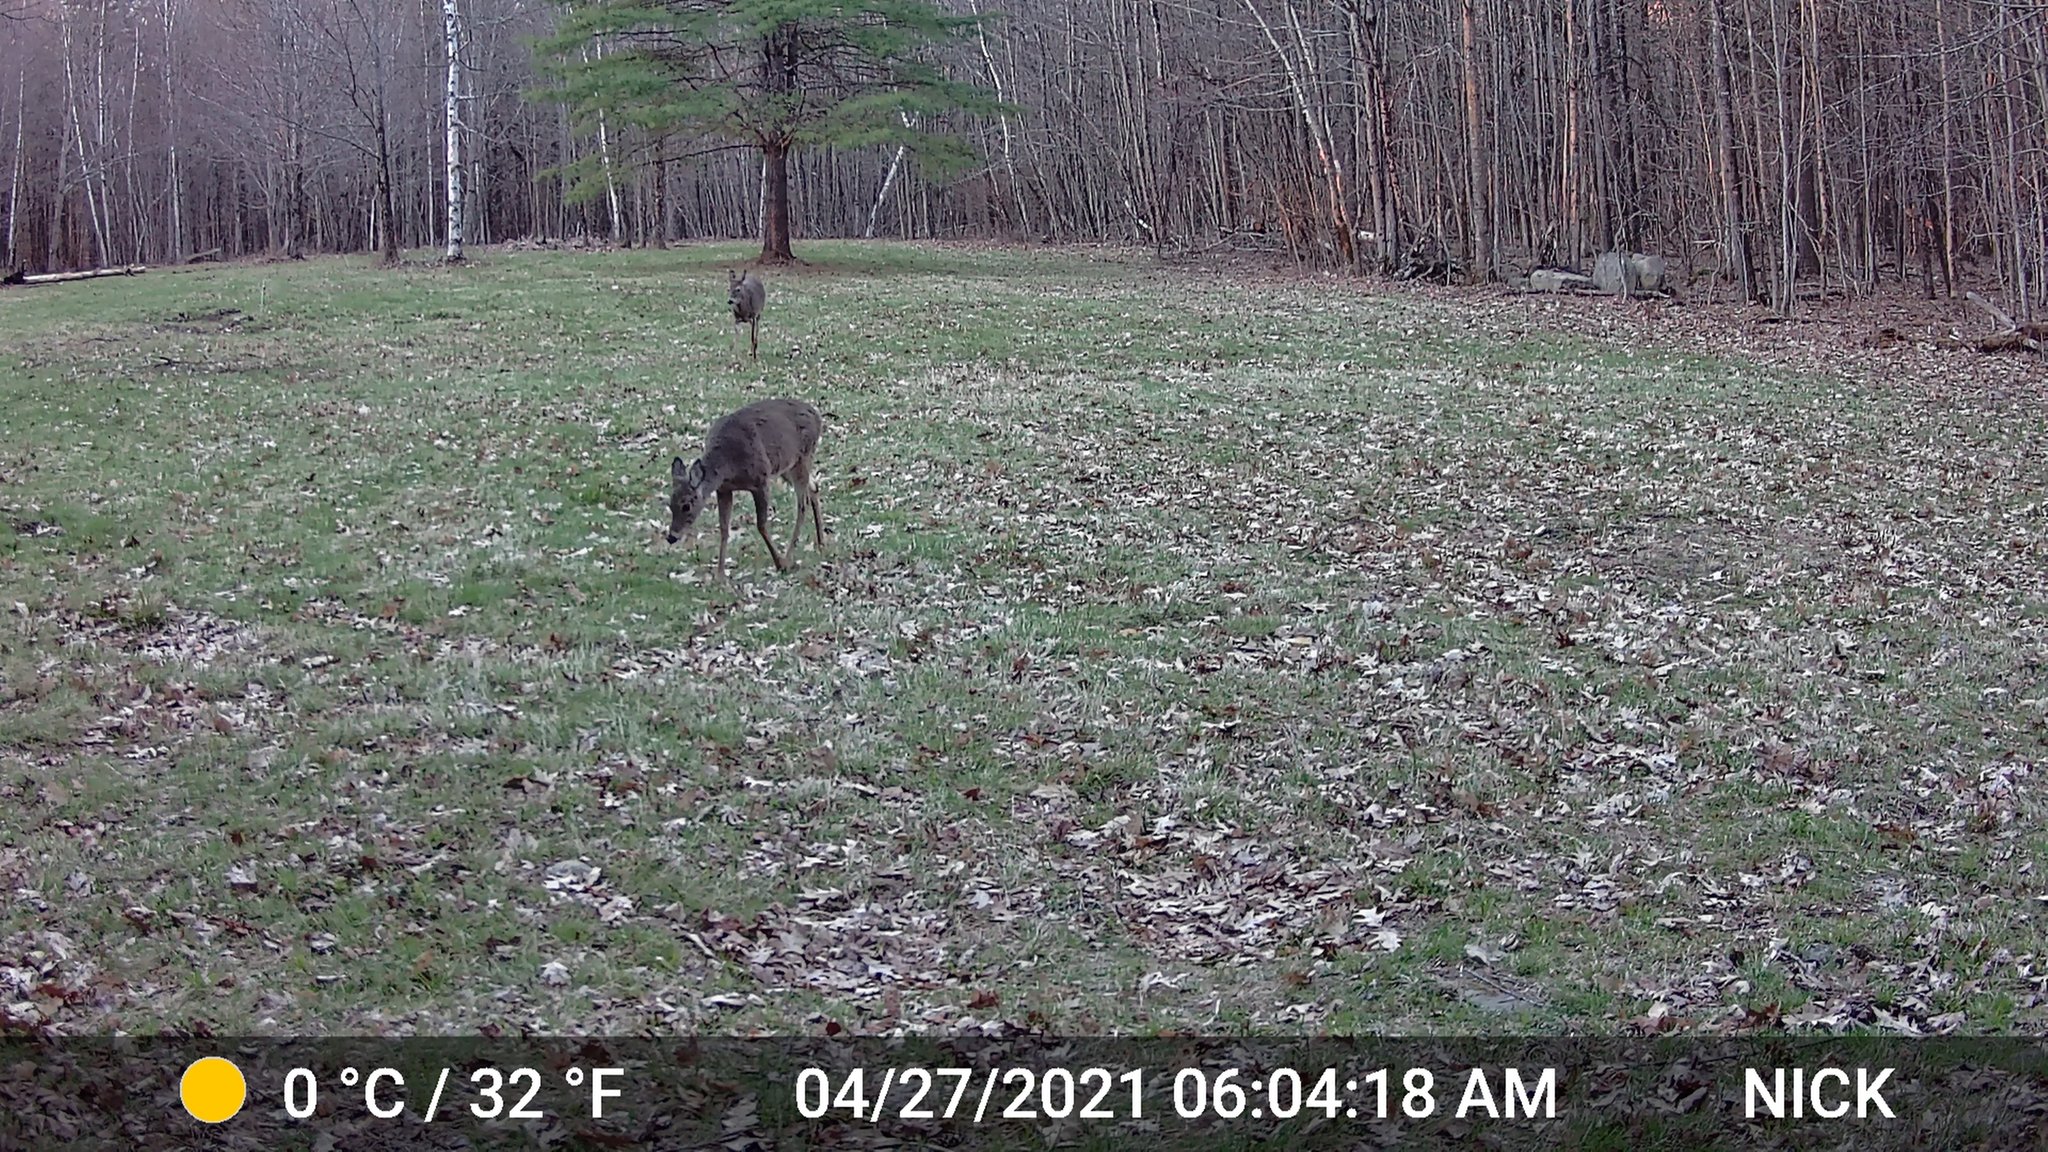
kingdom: Animalia
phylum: Chordata
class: Mammalia
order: Artiodactyla
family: Cervidae
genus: Odocoileus
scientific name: Odocoileus virginianus
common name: White-tailed deer
